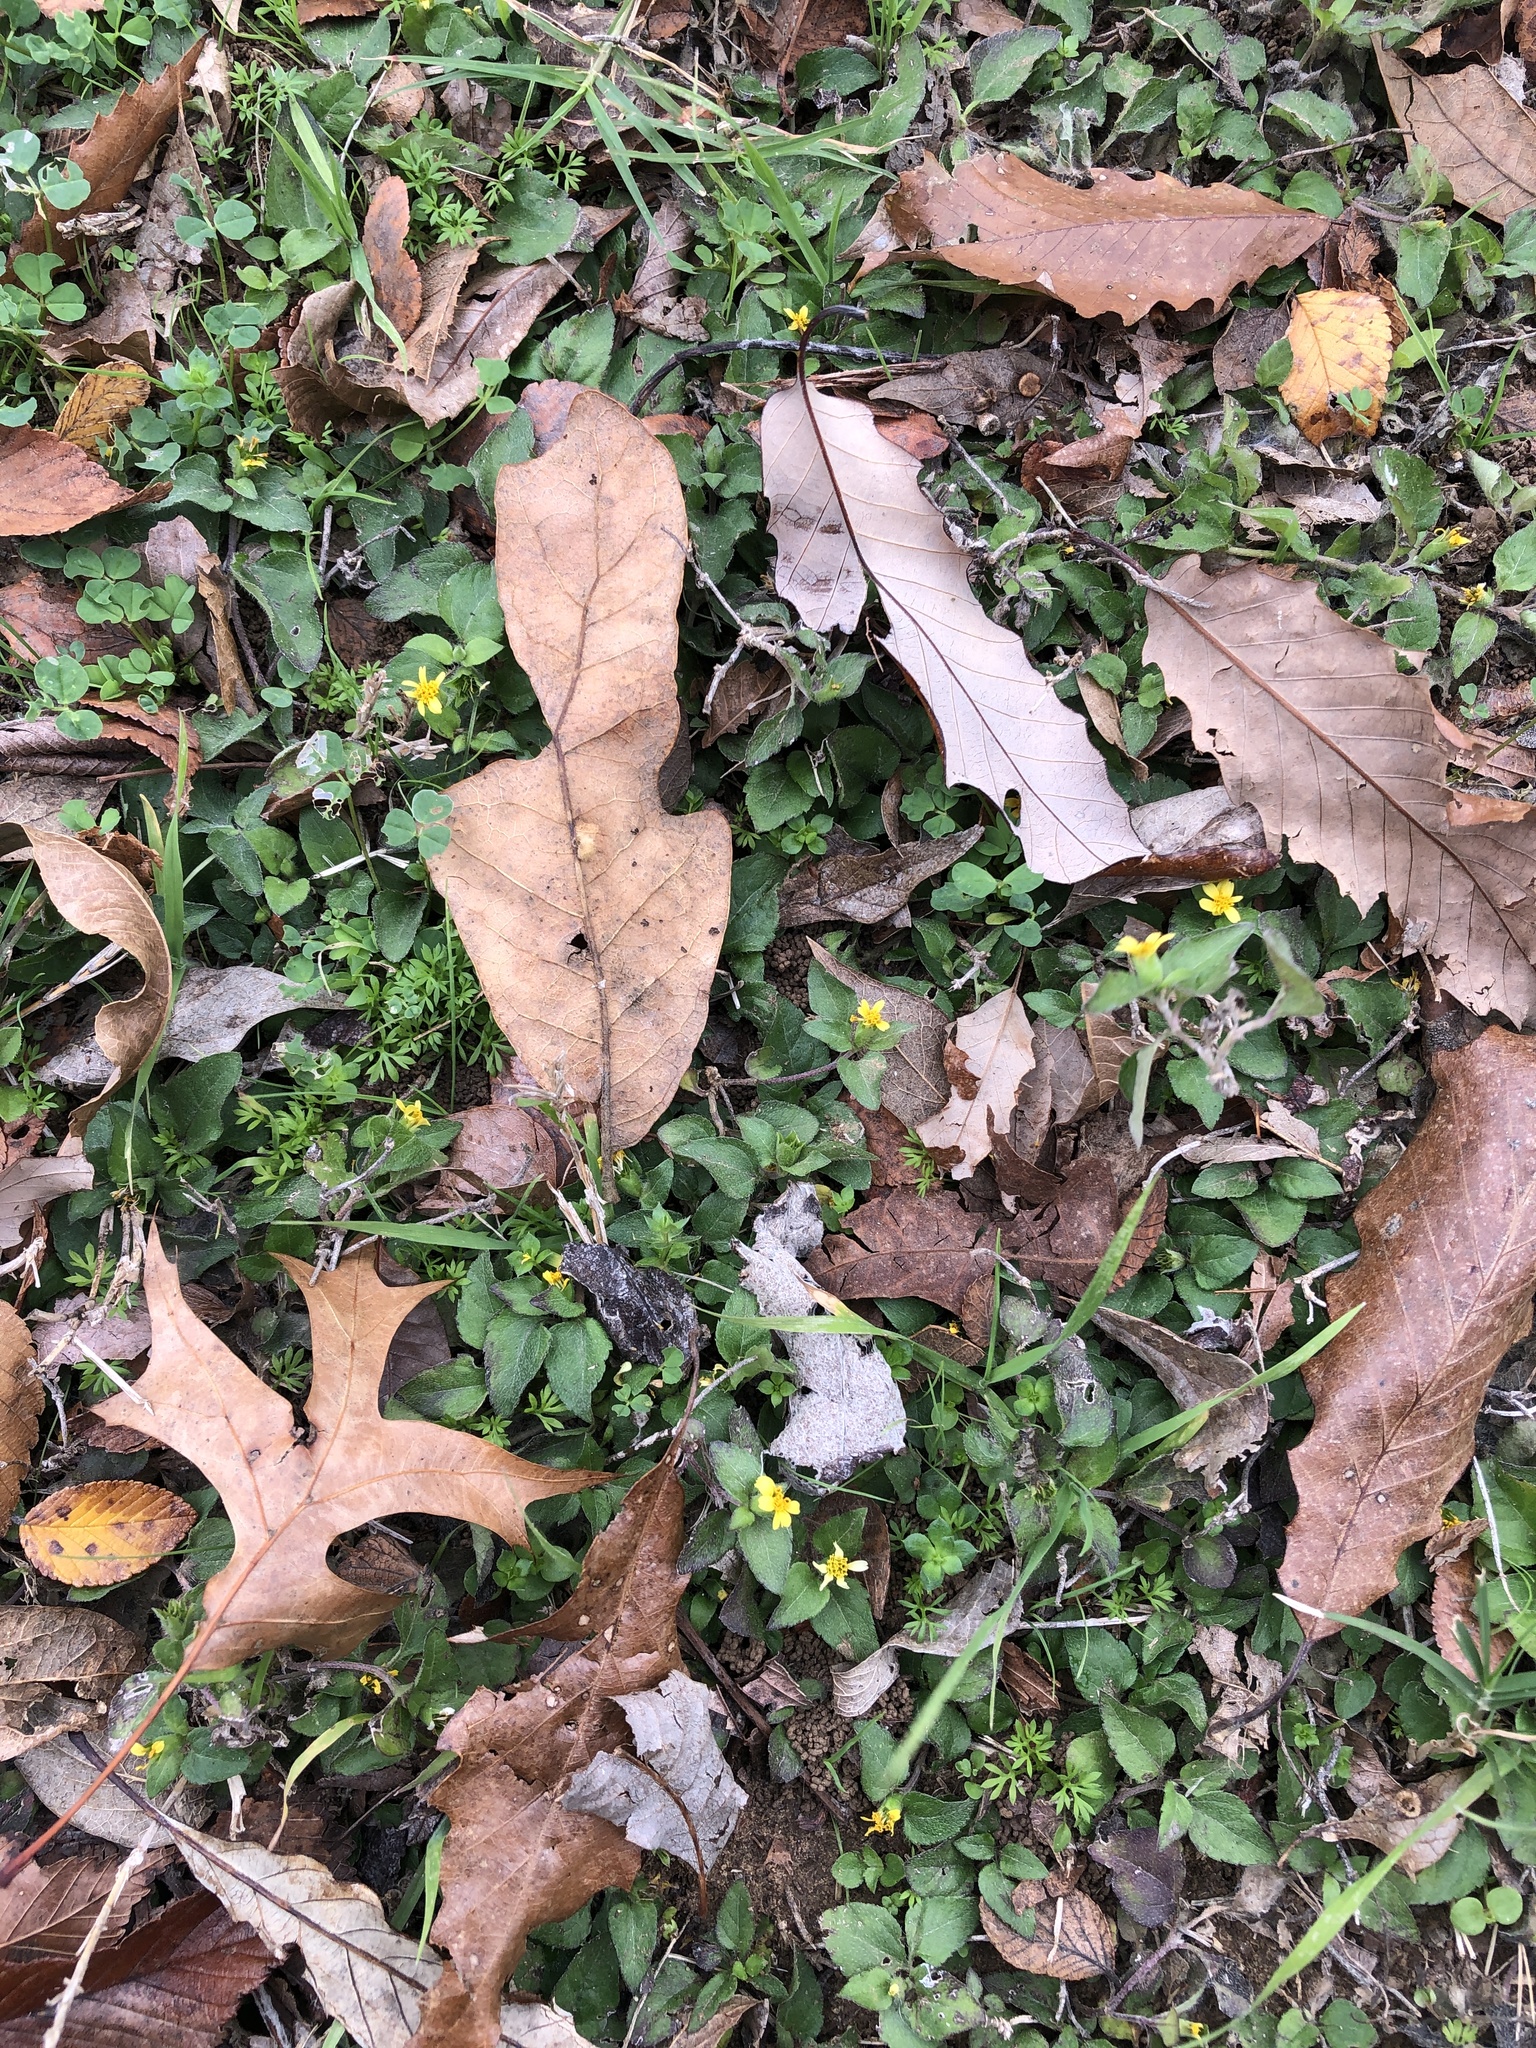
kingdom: Plantae
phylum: Tracheophyta
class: Magnoliopsida
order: Asterales
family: Asteraceae
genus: Calyptocarpus
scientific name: Calyptocarpus vialis
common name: Straggler daisy
